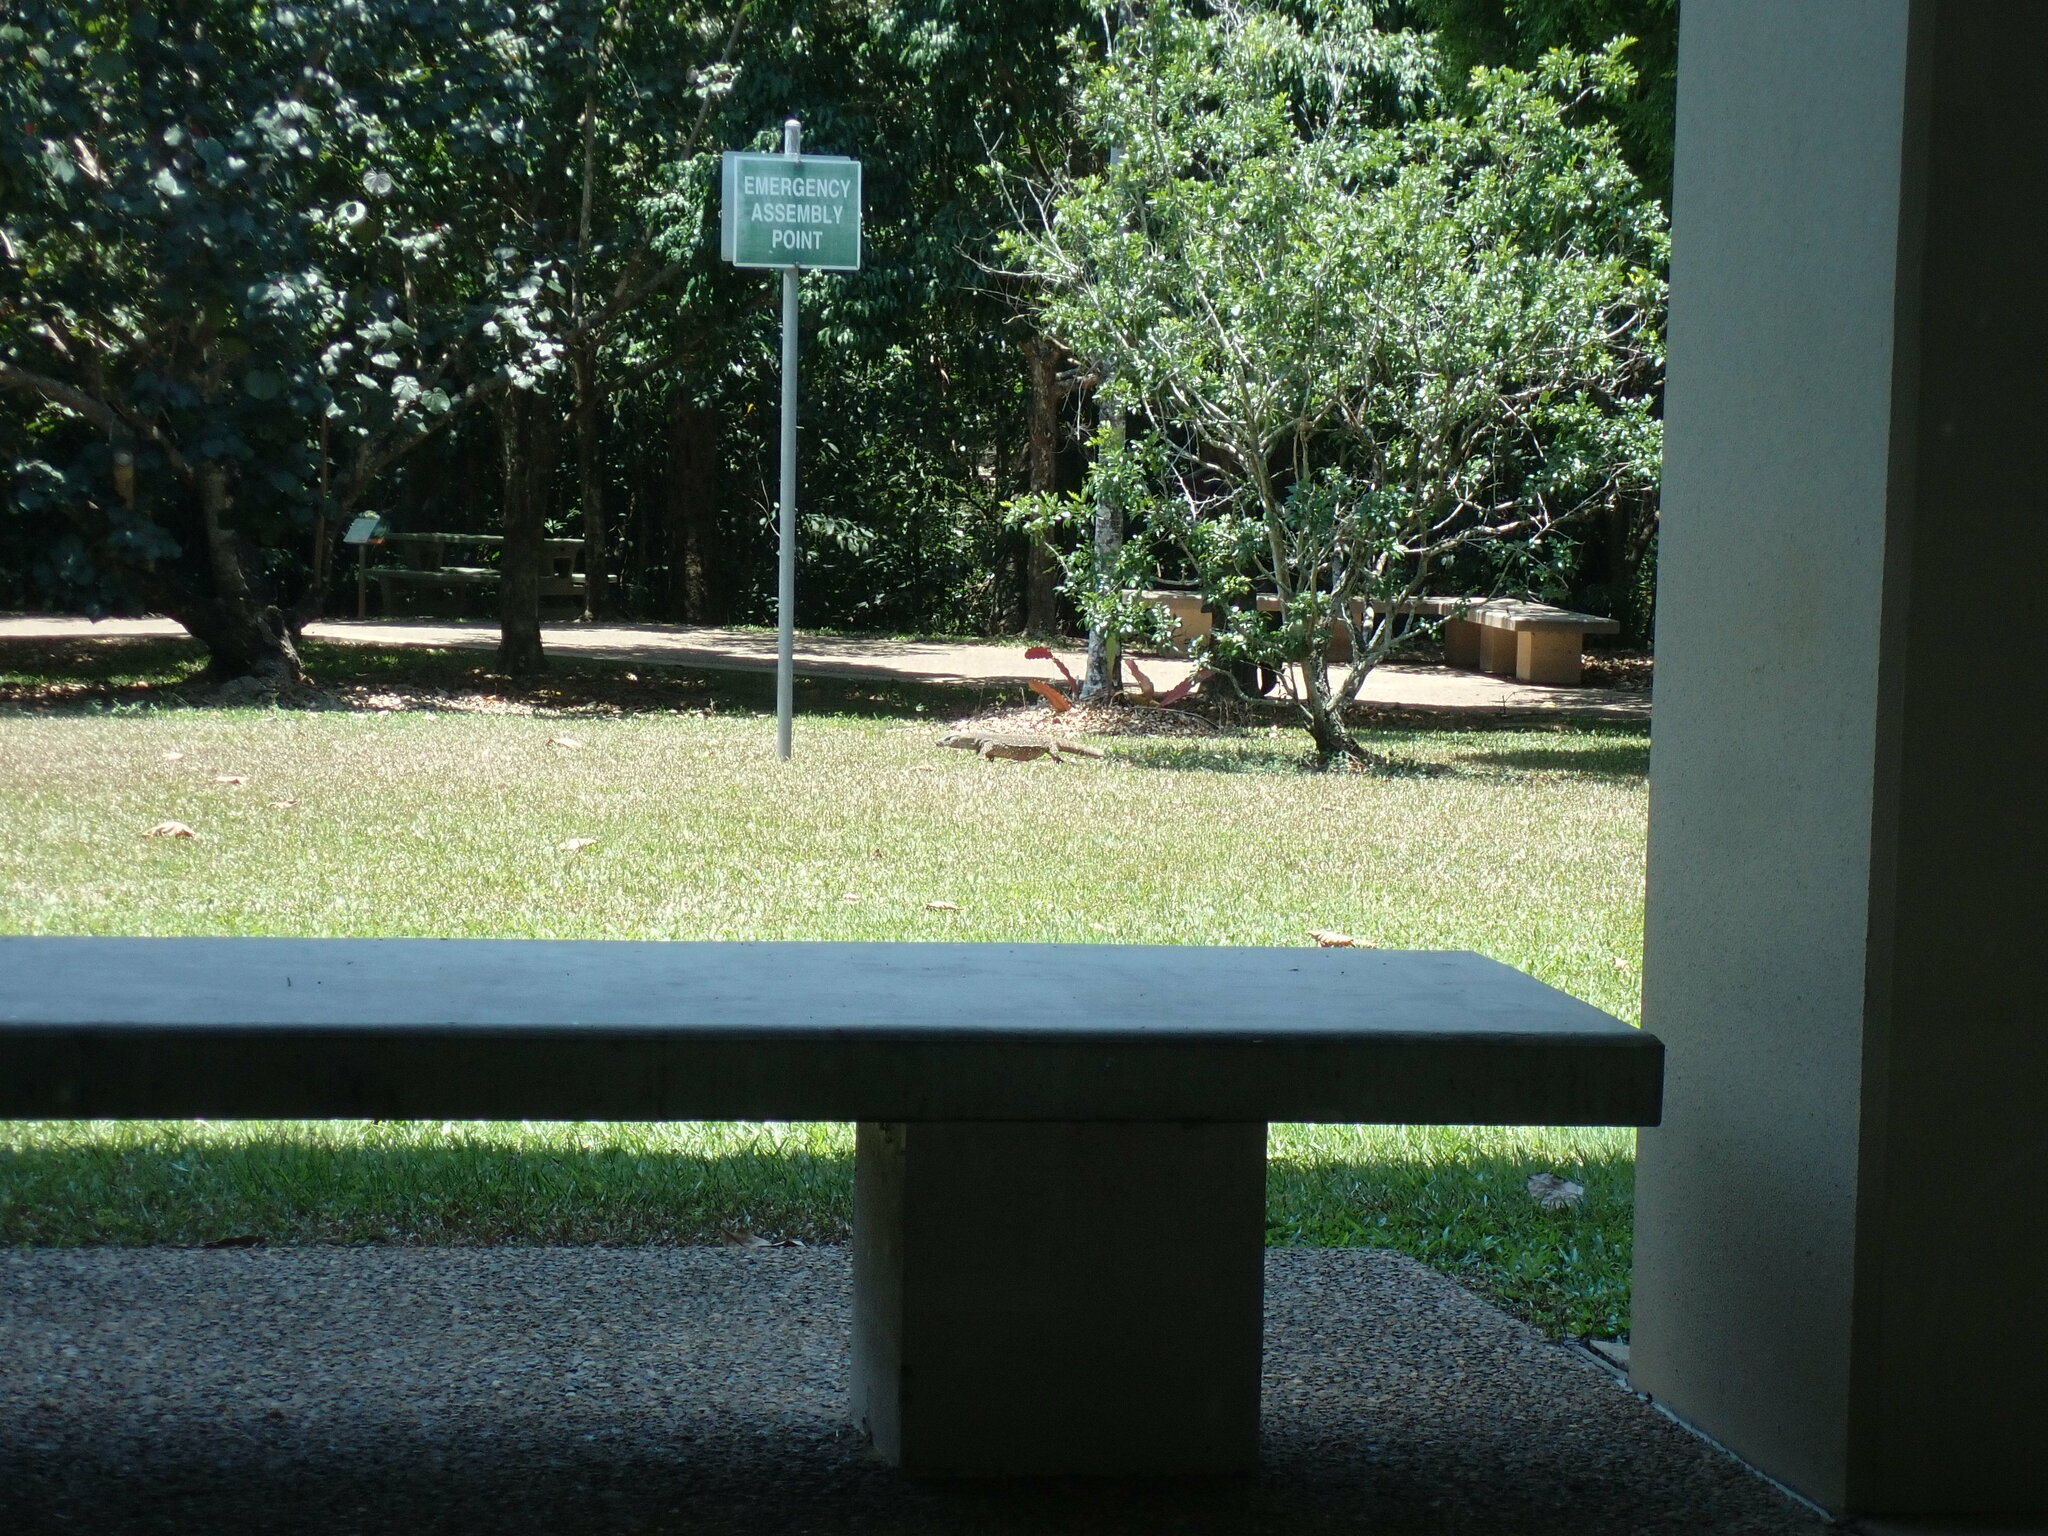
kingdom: Animalia
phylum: Chordata
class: Squamata
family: Varanidae
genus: Varanus
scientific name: Varanus varius
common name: Lace monitor
